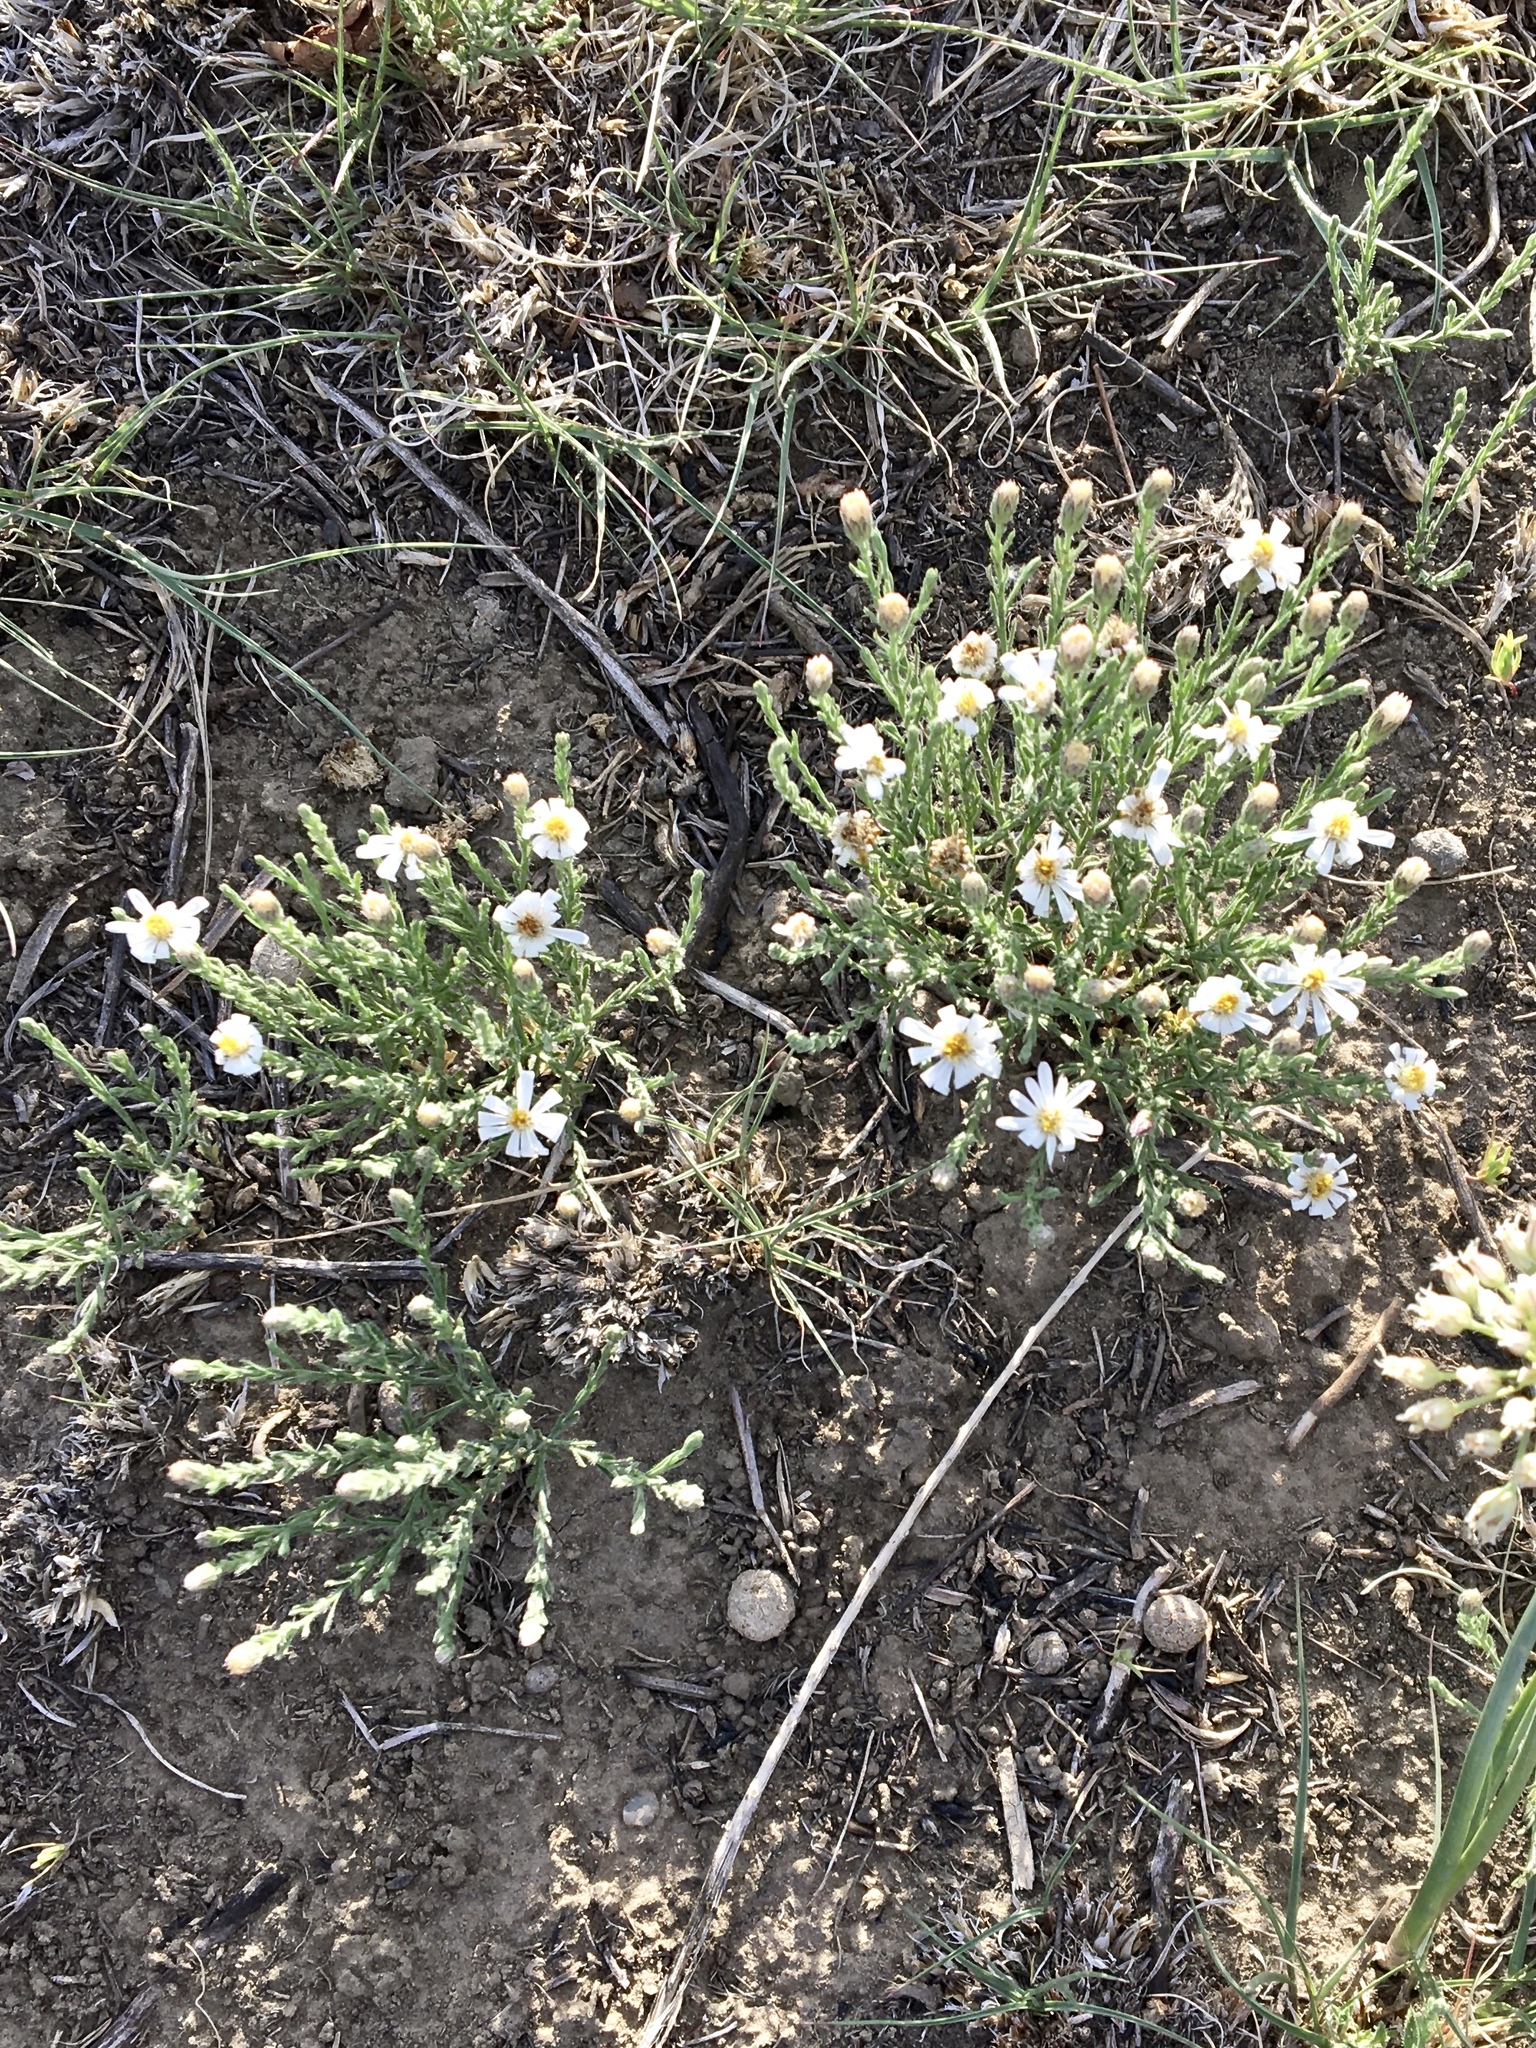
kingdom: Plantae
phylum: Tracheophyta
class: Magnoliopsida
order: Asterales
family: Asteraceae
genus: Chaetopappa
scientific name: Chaetopappa ericoides
